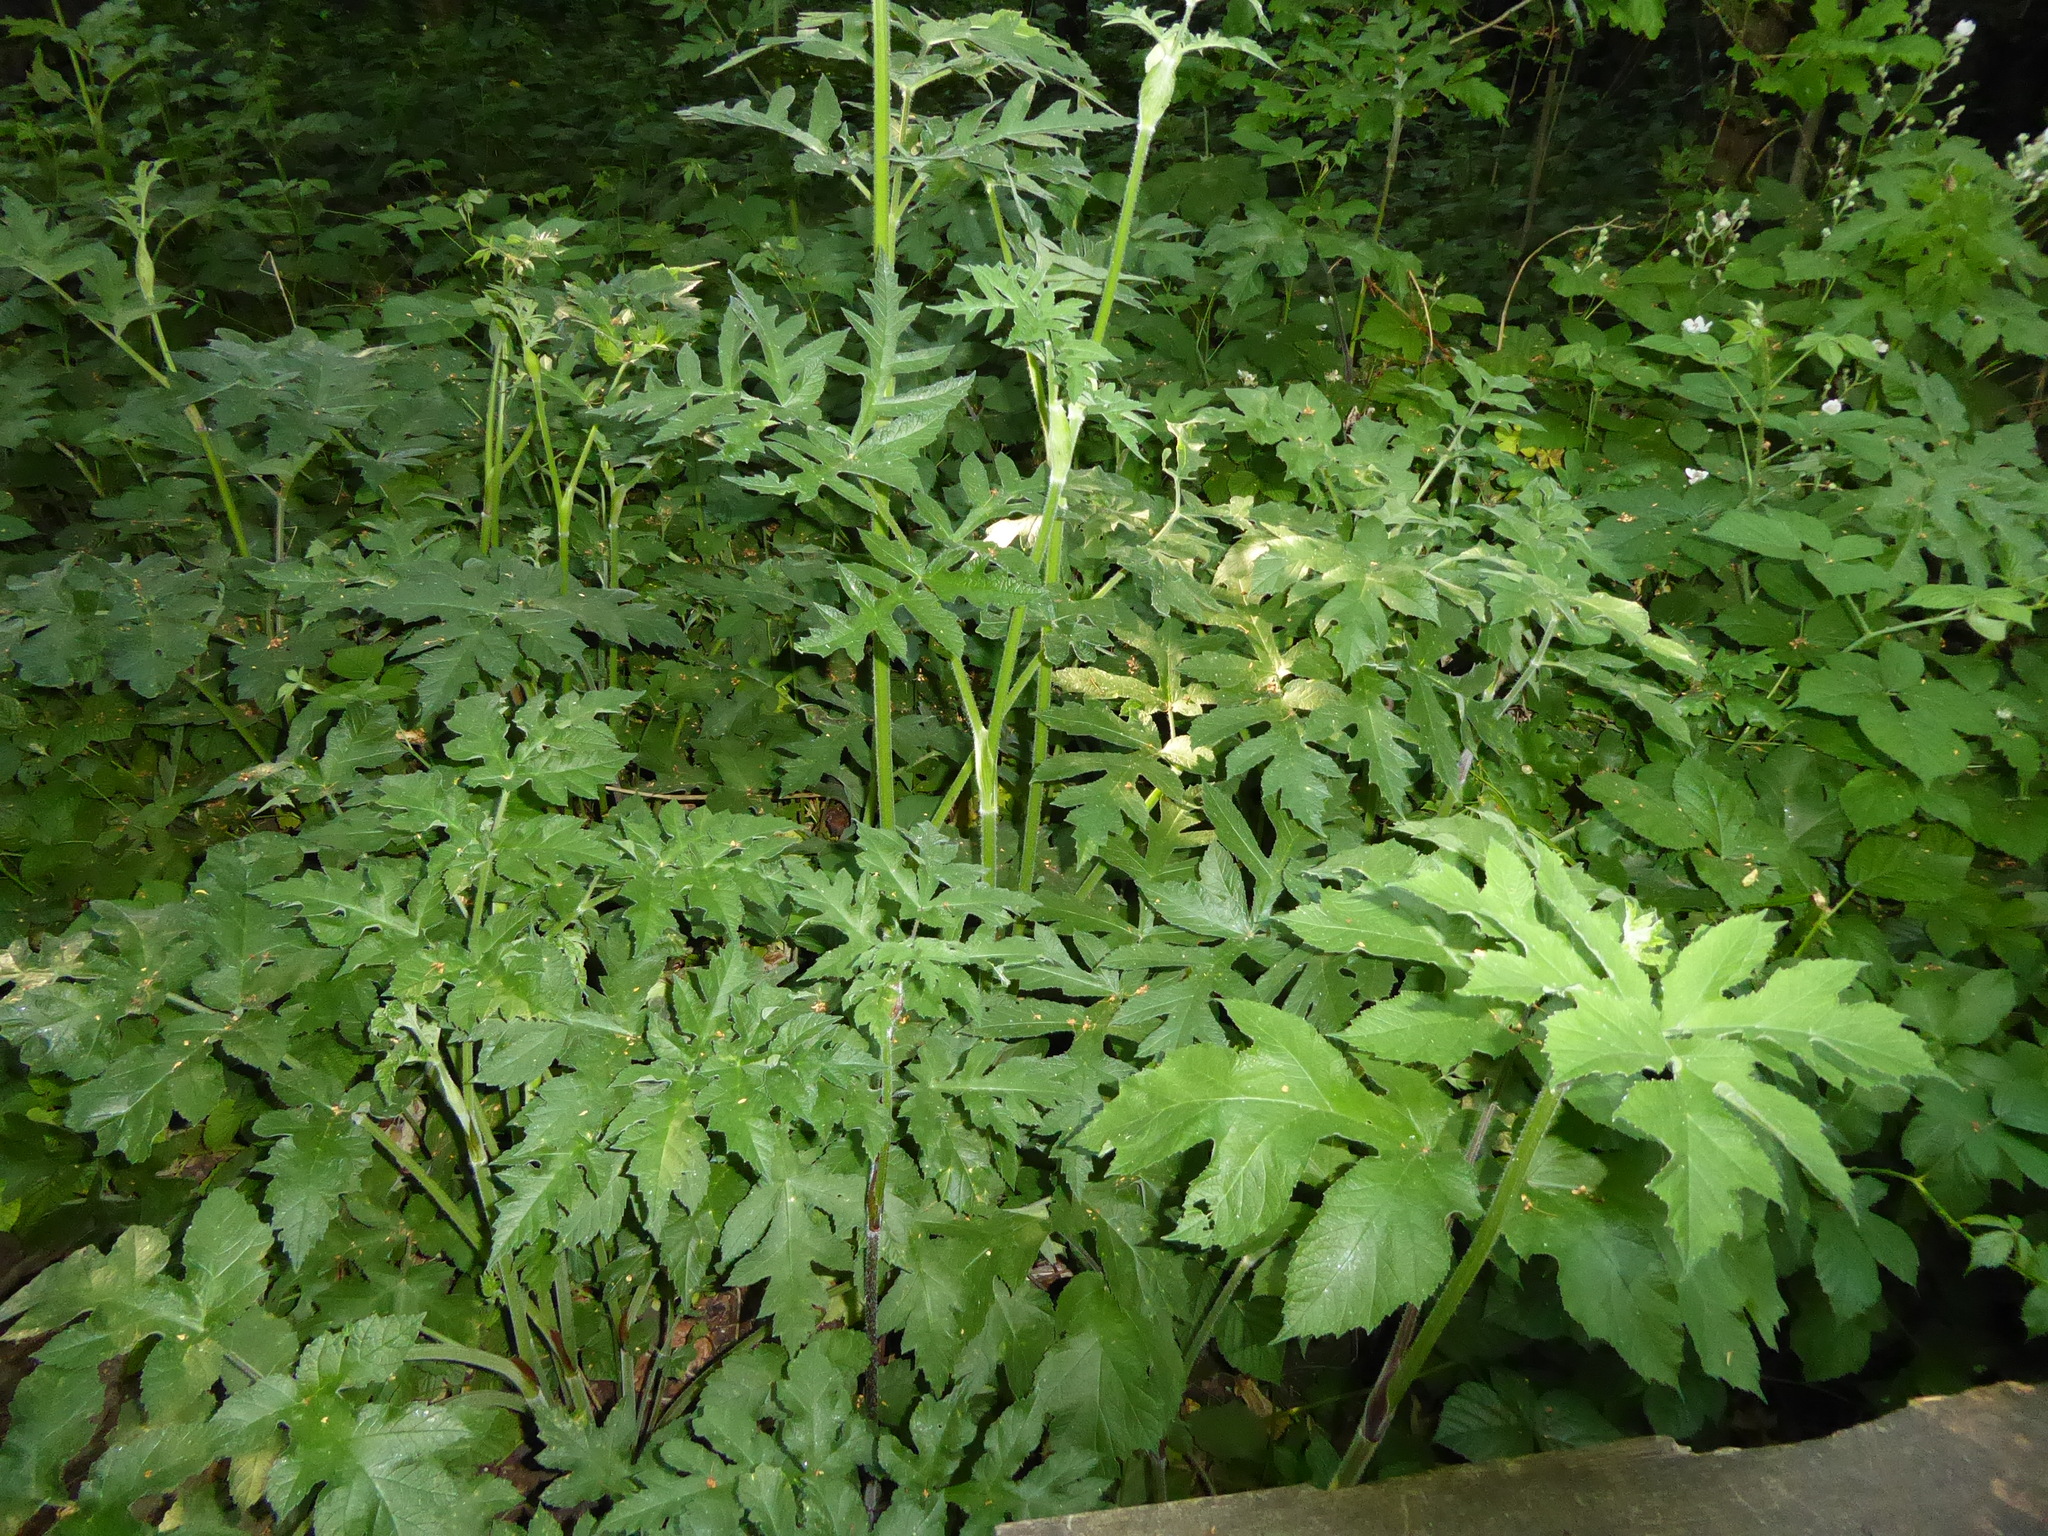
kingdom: Plantae
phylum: Tracheophyta
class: Magnoliopsida
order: Apiales
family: Apiaceae
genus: Heracleum
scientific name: Heracleum sphondylium
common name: Hogweed
